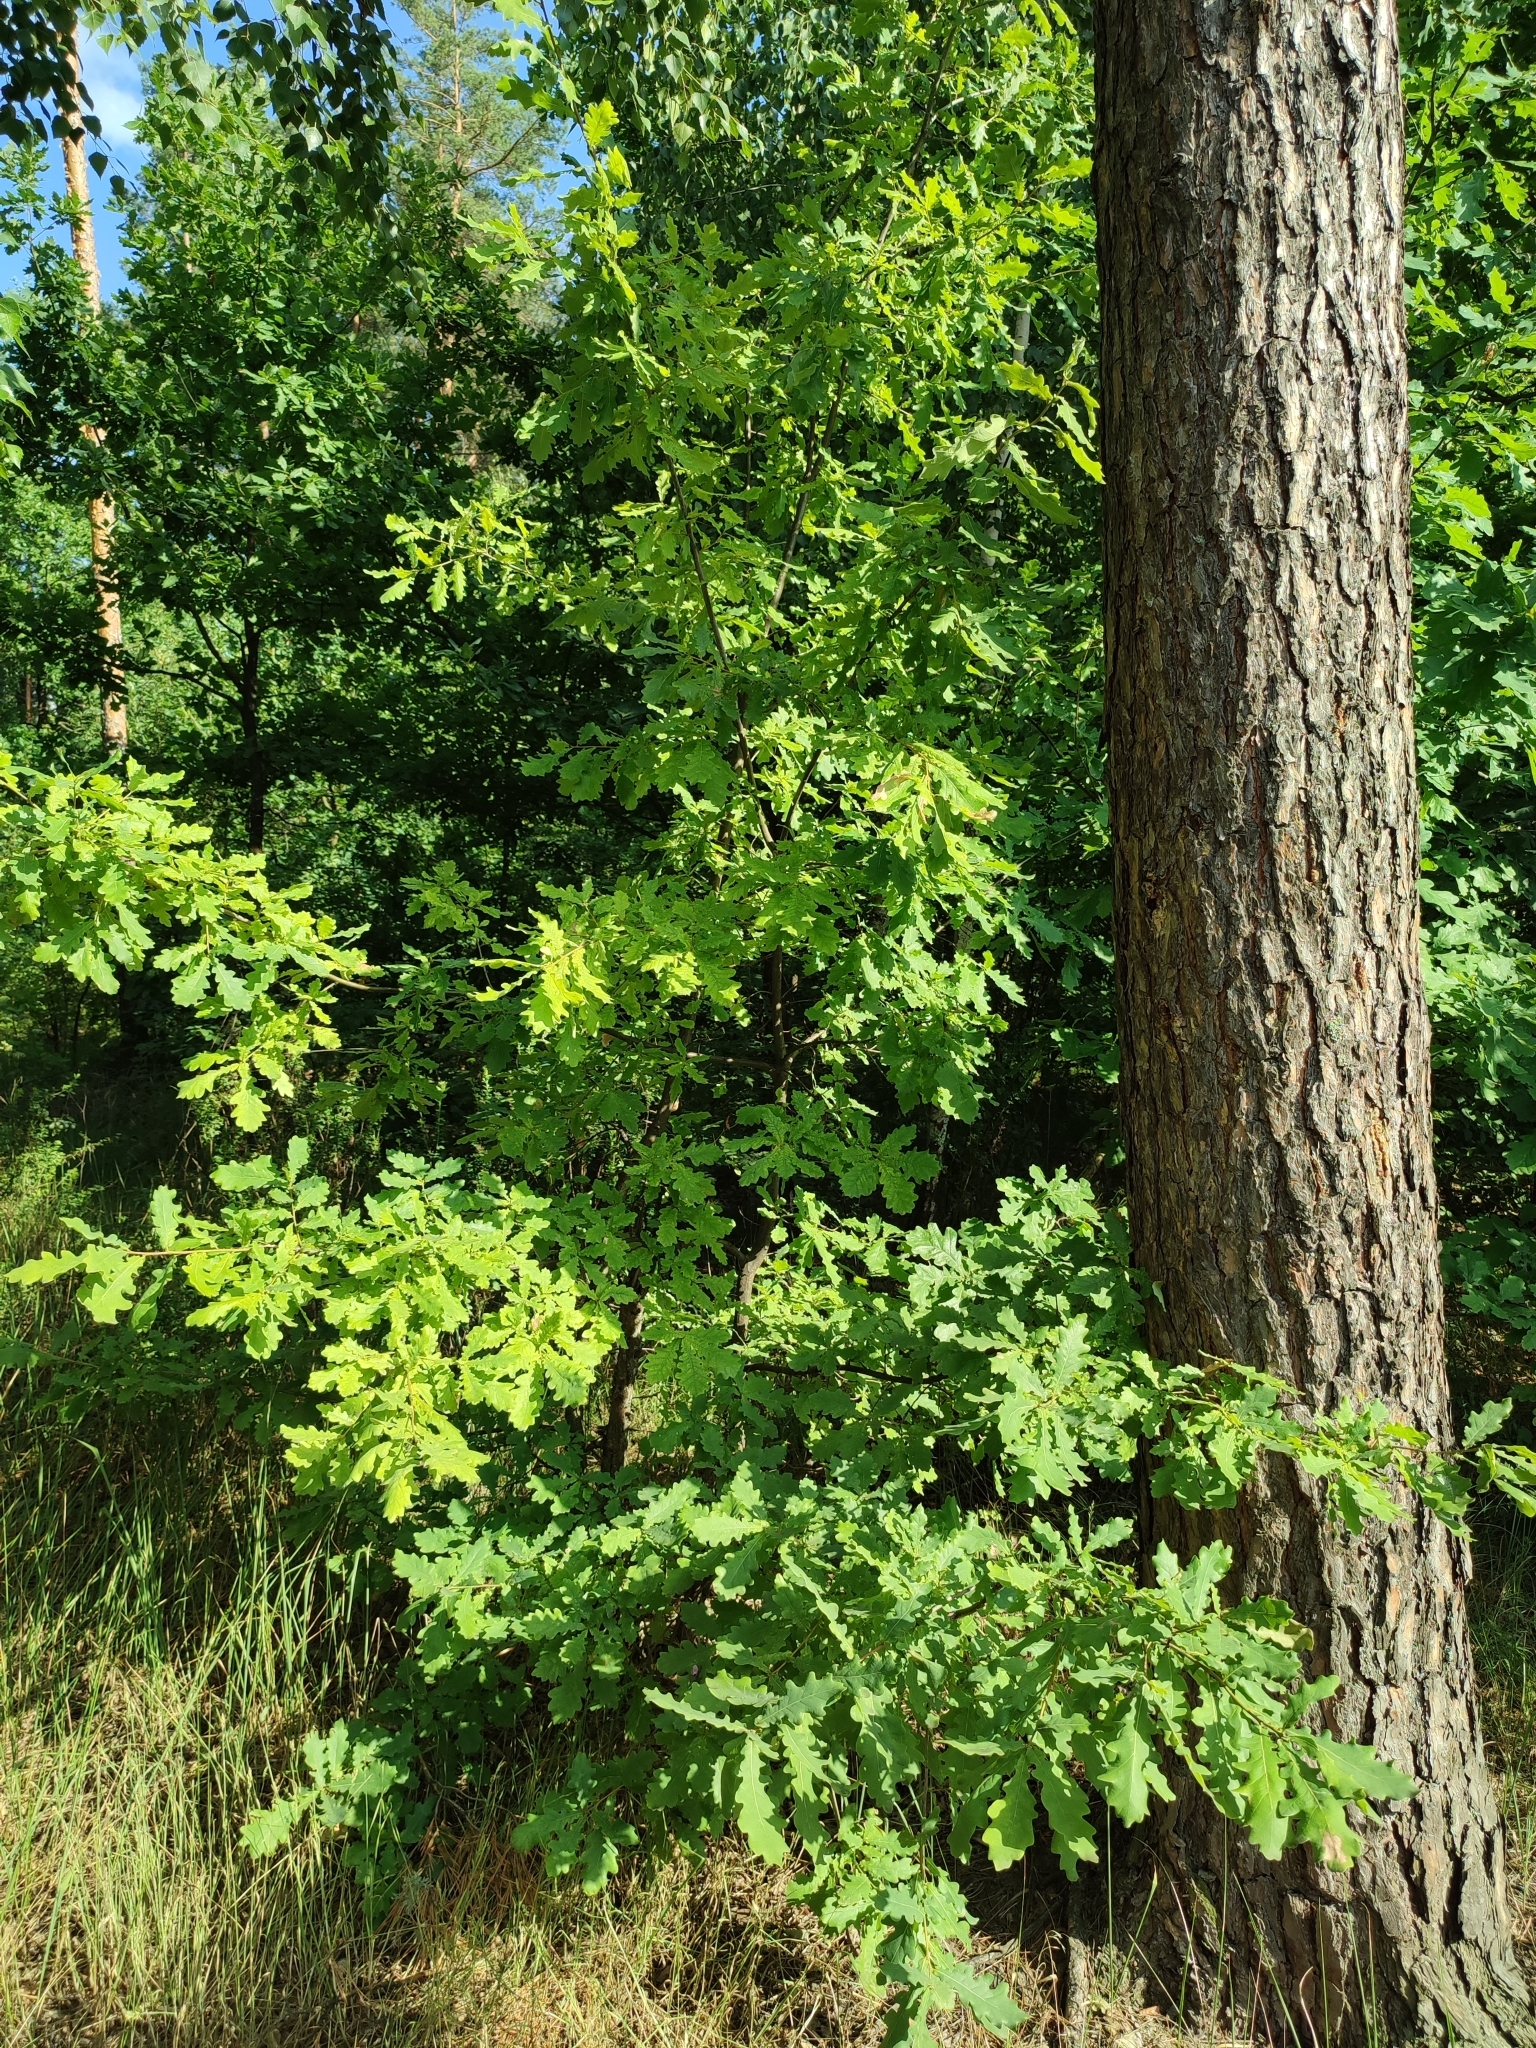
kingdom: Plantae
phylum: Tracheophyta
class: Magnoliopsida
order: Fagales
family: Fagaceae
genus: Quercus
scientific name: Quercus robur
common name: Pedunculate oak
